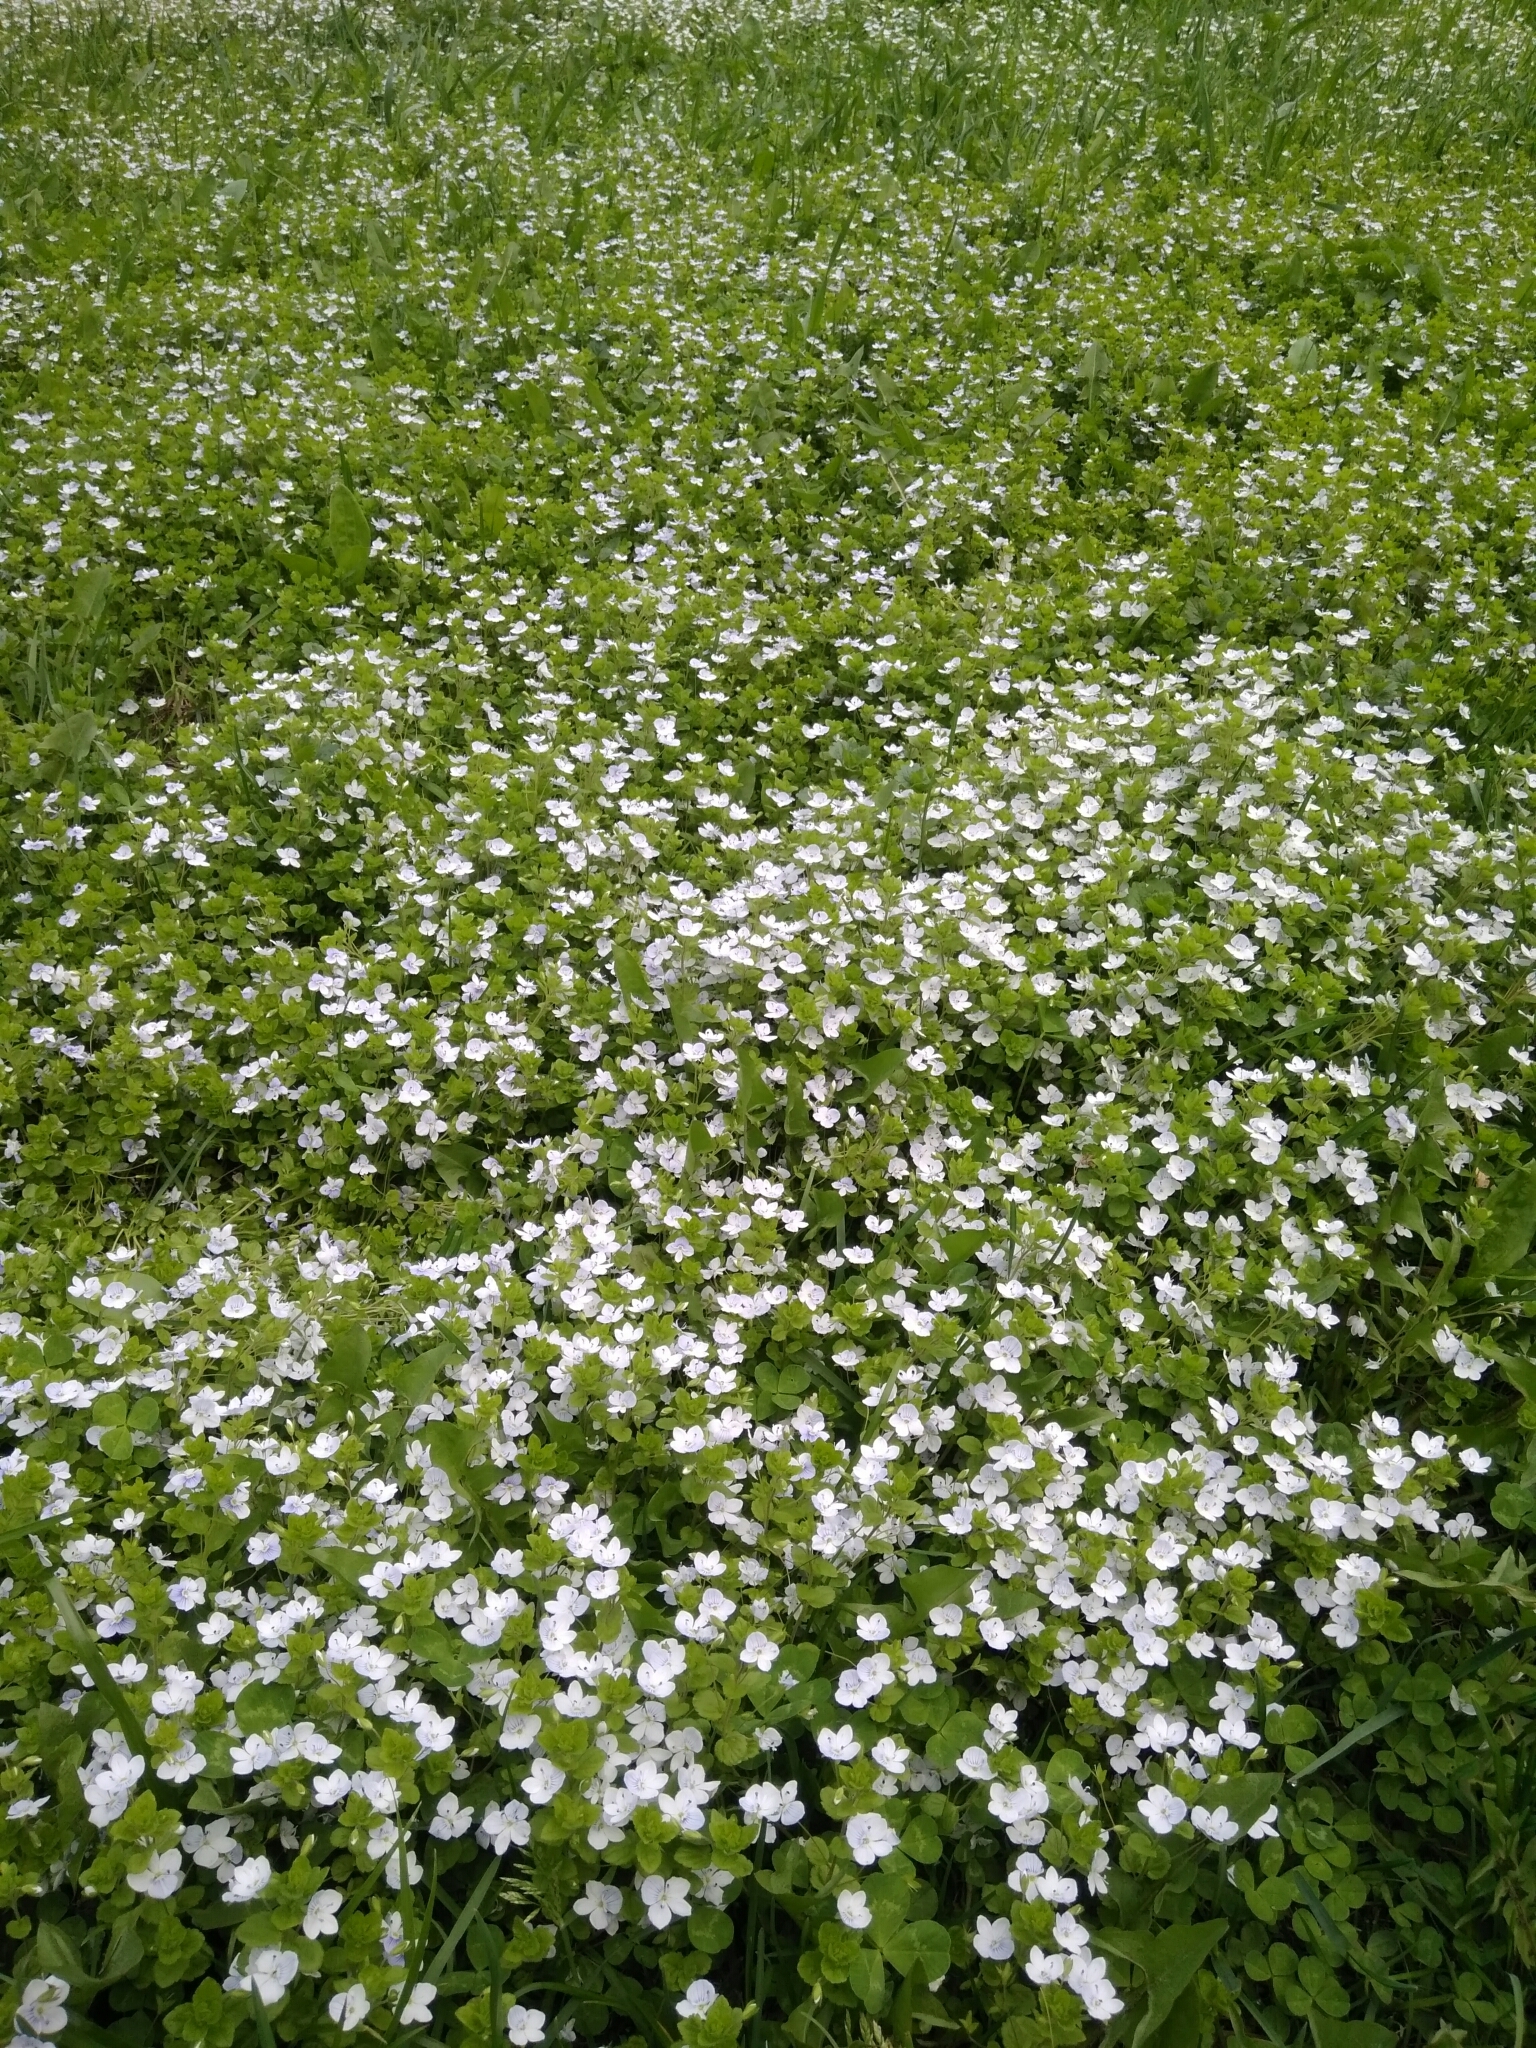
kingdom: Plantae
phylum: Tracheophyta
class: Magnoliopsida
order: Lamiales
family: Plantaginaceae
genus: Veronica
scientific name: Veronica filiformis
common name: Slender speedwell
